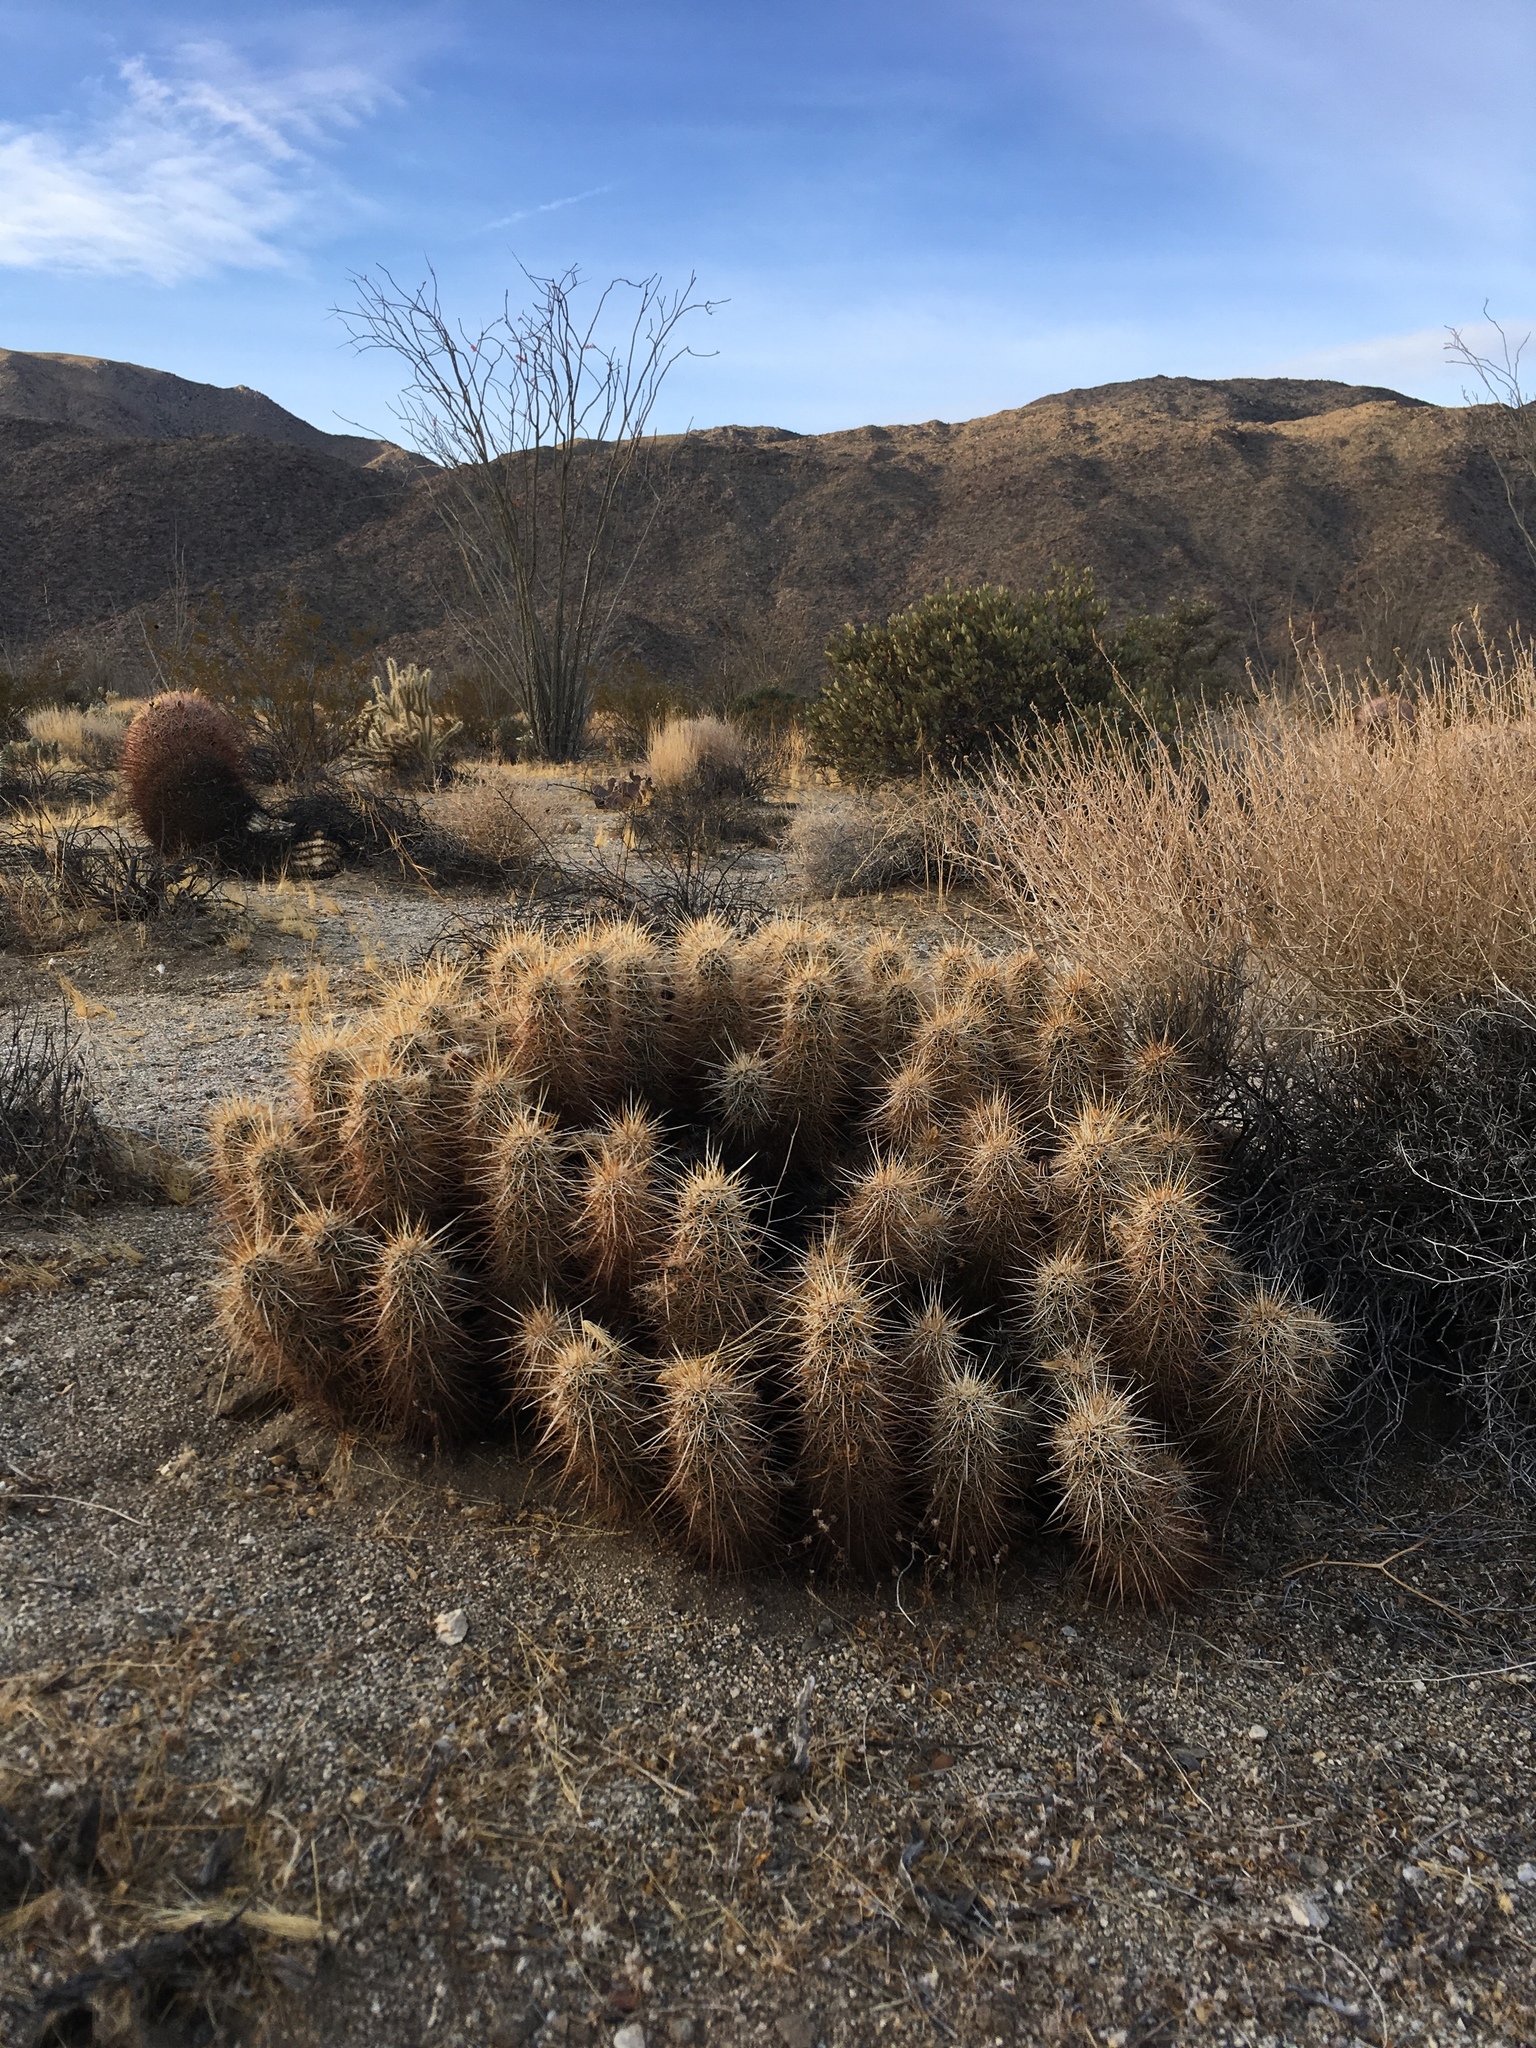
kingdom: Plantae
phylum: Tracheophyta
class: Magnoliopsida
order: Caryophyllales
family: Cactaceae
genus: Echinocereus
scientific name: Echinocereus engelmannii
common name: Engelmann's hedgehog cactus
